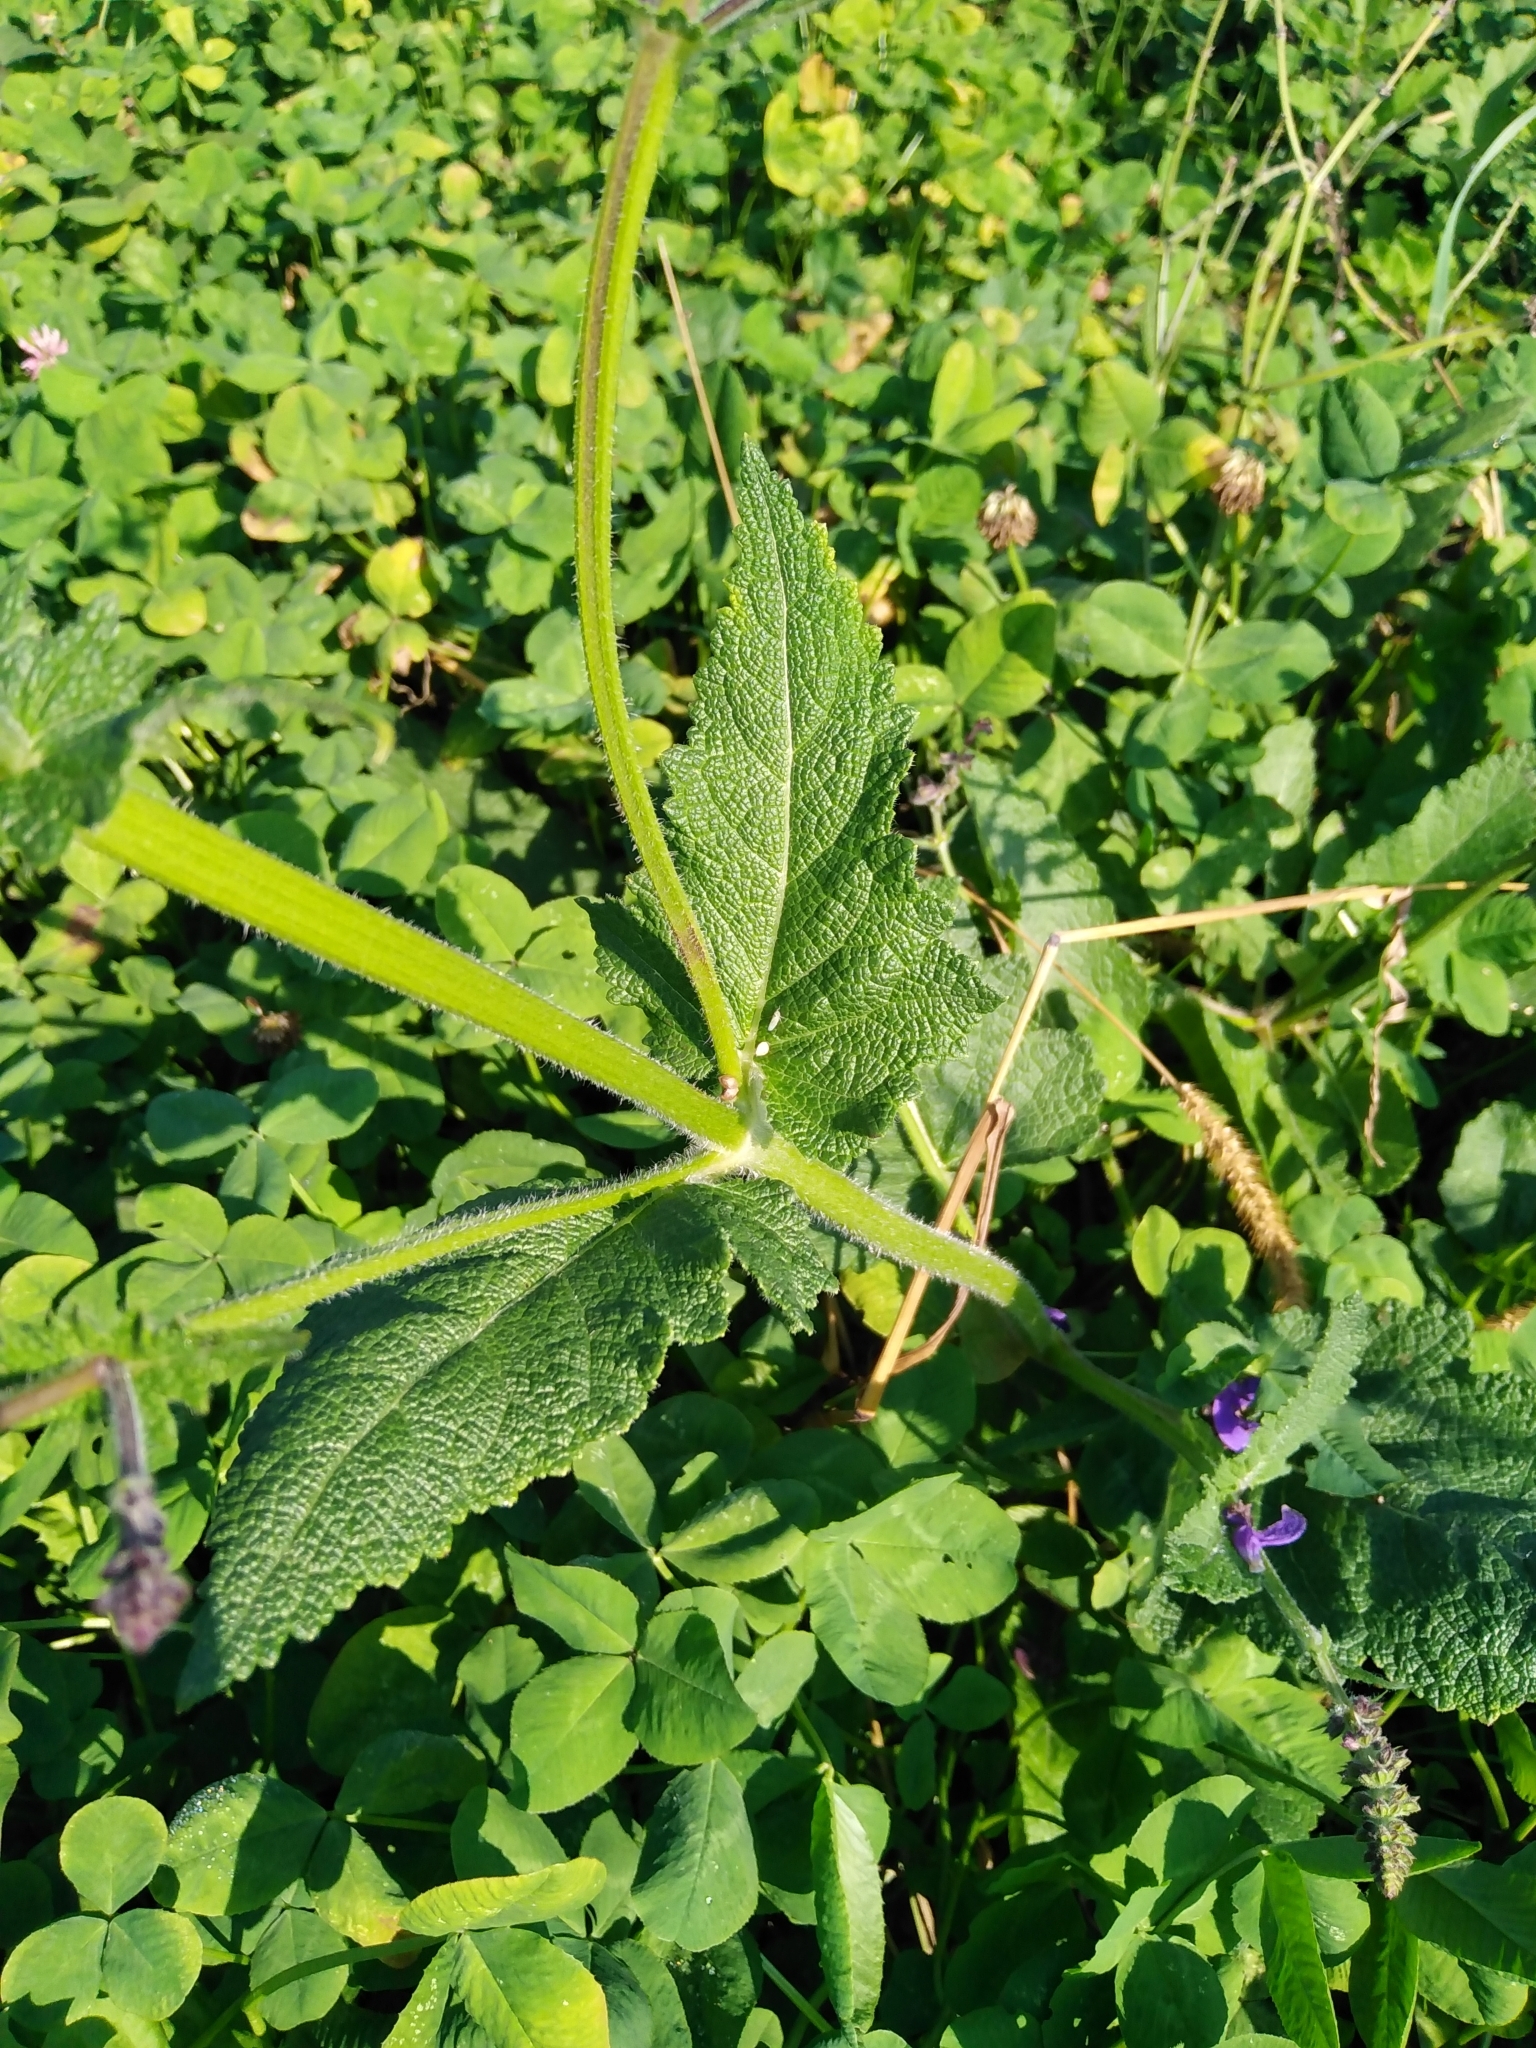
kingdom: Plantae
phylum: Tracheophyta
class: Magnoliopsida
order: Lamiales
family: Lamiaceae
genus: Salvia
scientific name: Salvia pratensis
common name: Meadow sage
